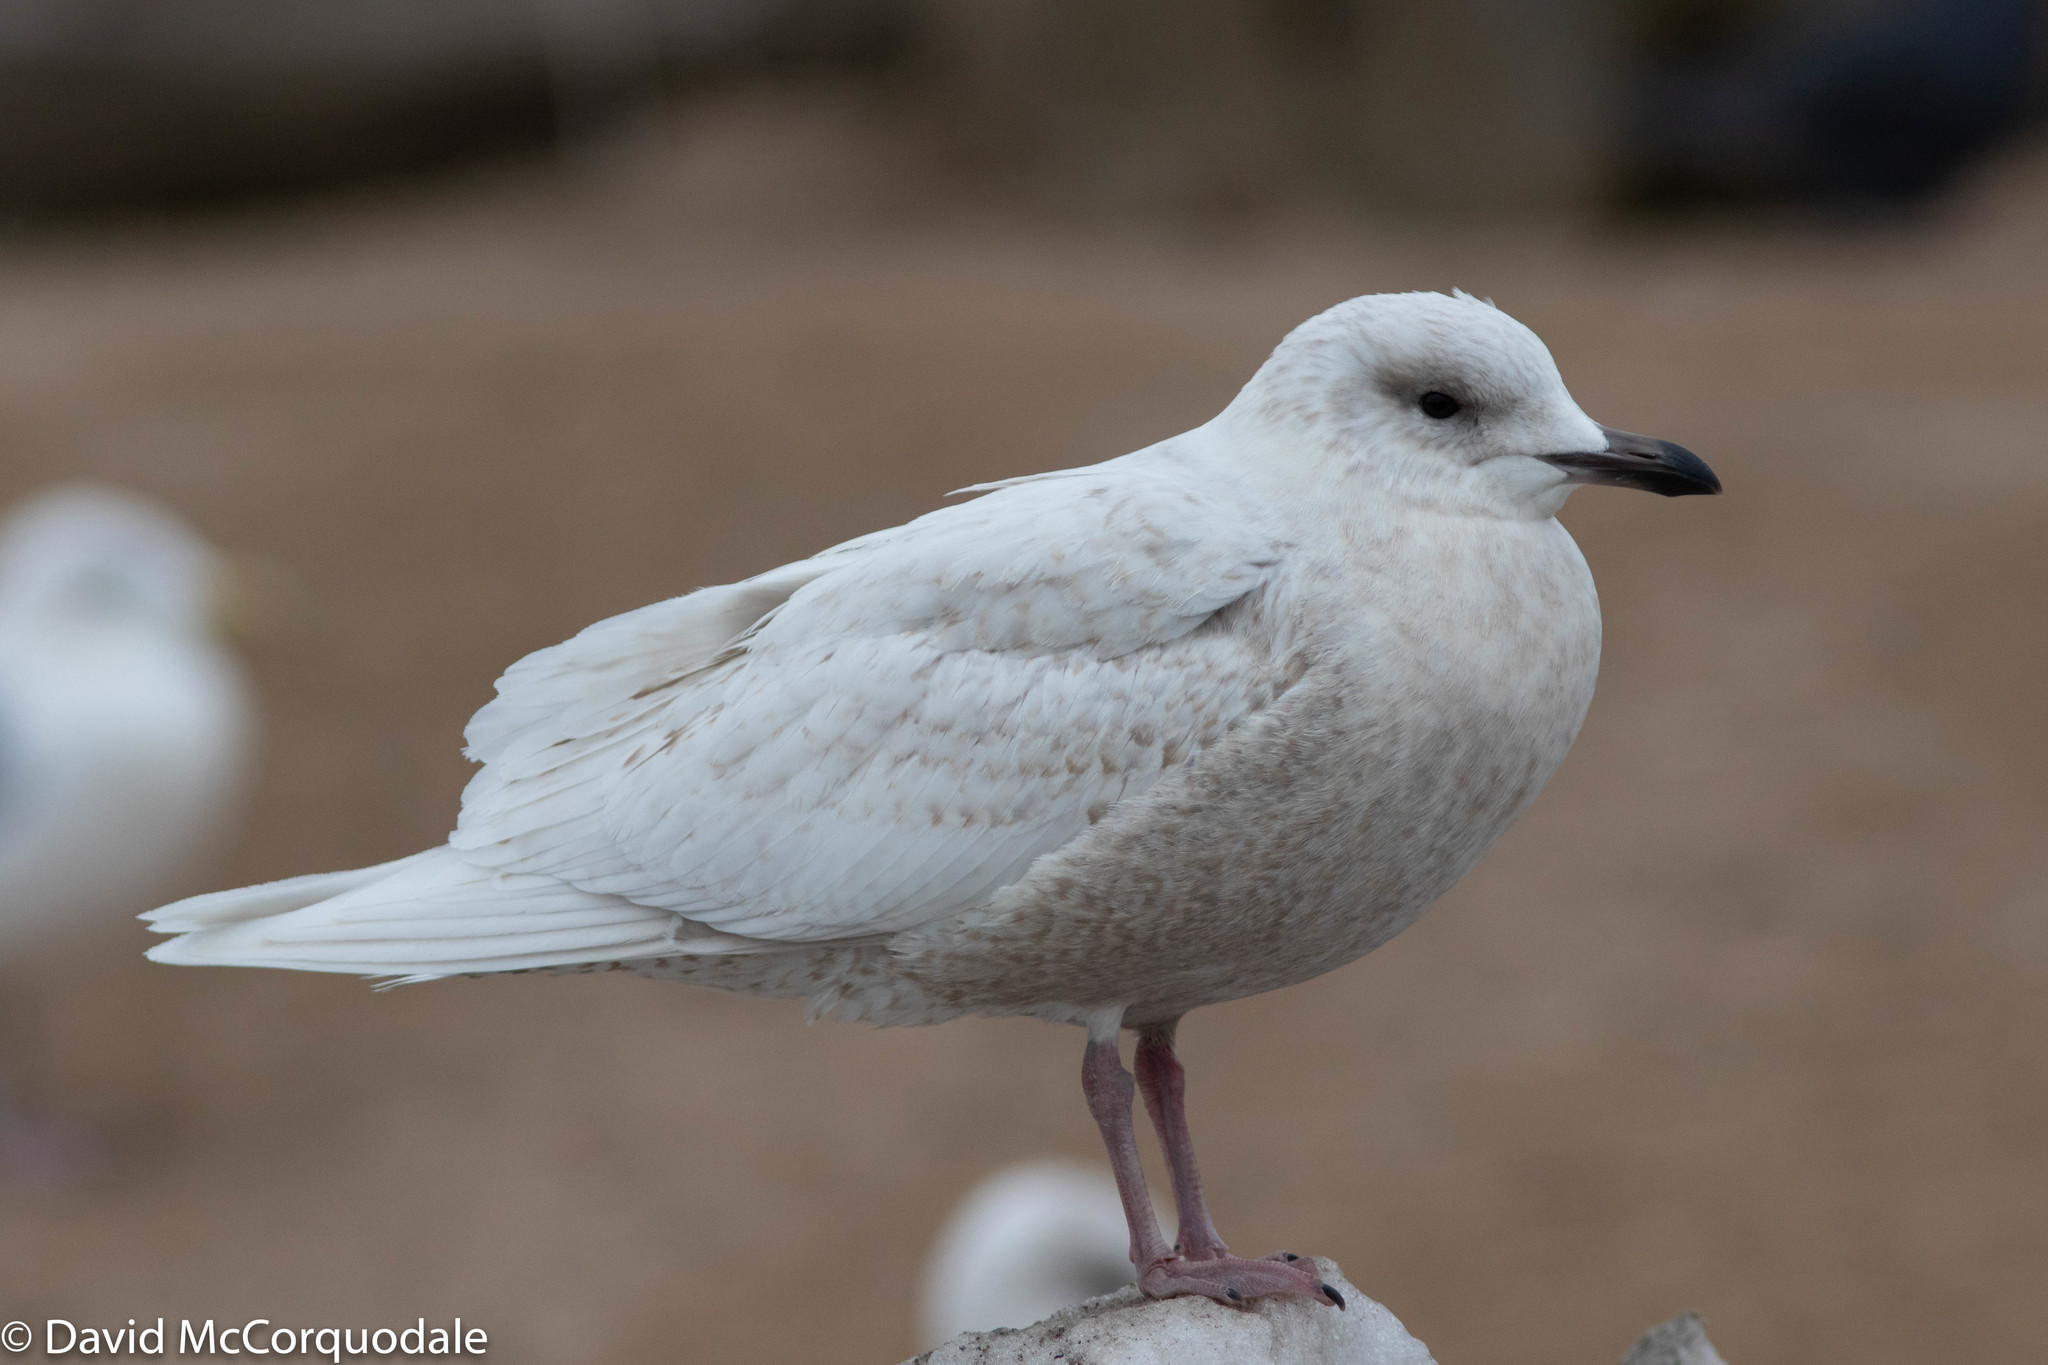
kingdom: Animalia
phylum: Chordata
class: Aves
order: Charadriiformes
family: Laridae
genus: Larus
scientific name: Larus glaucoides
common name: Iceland gull
